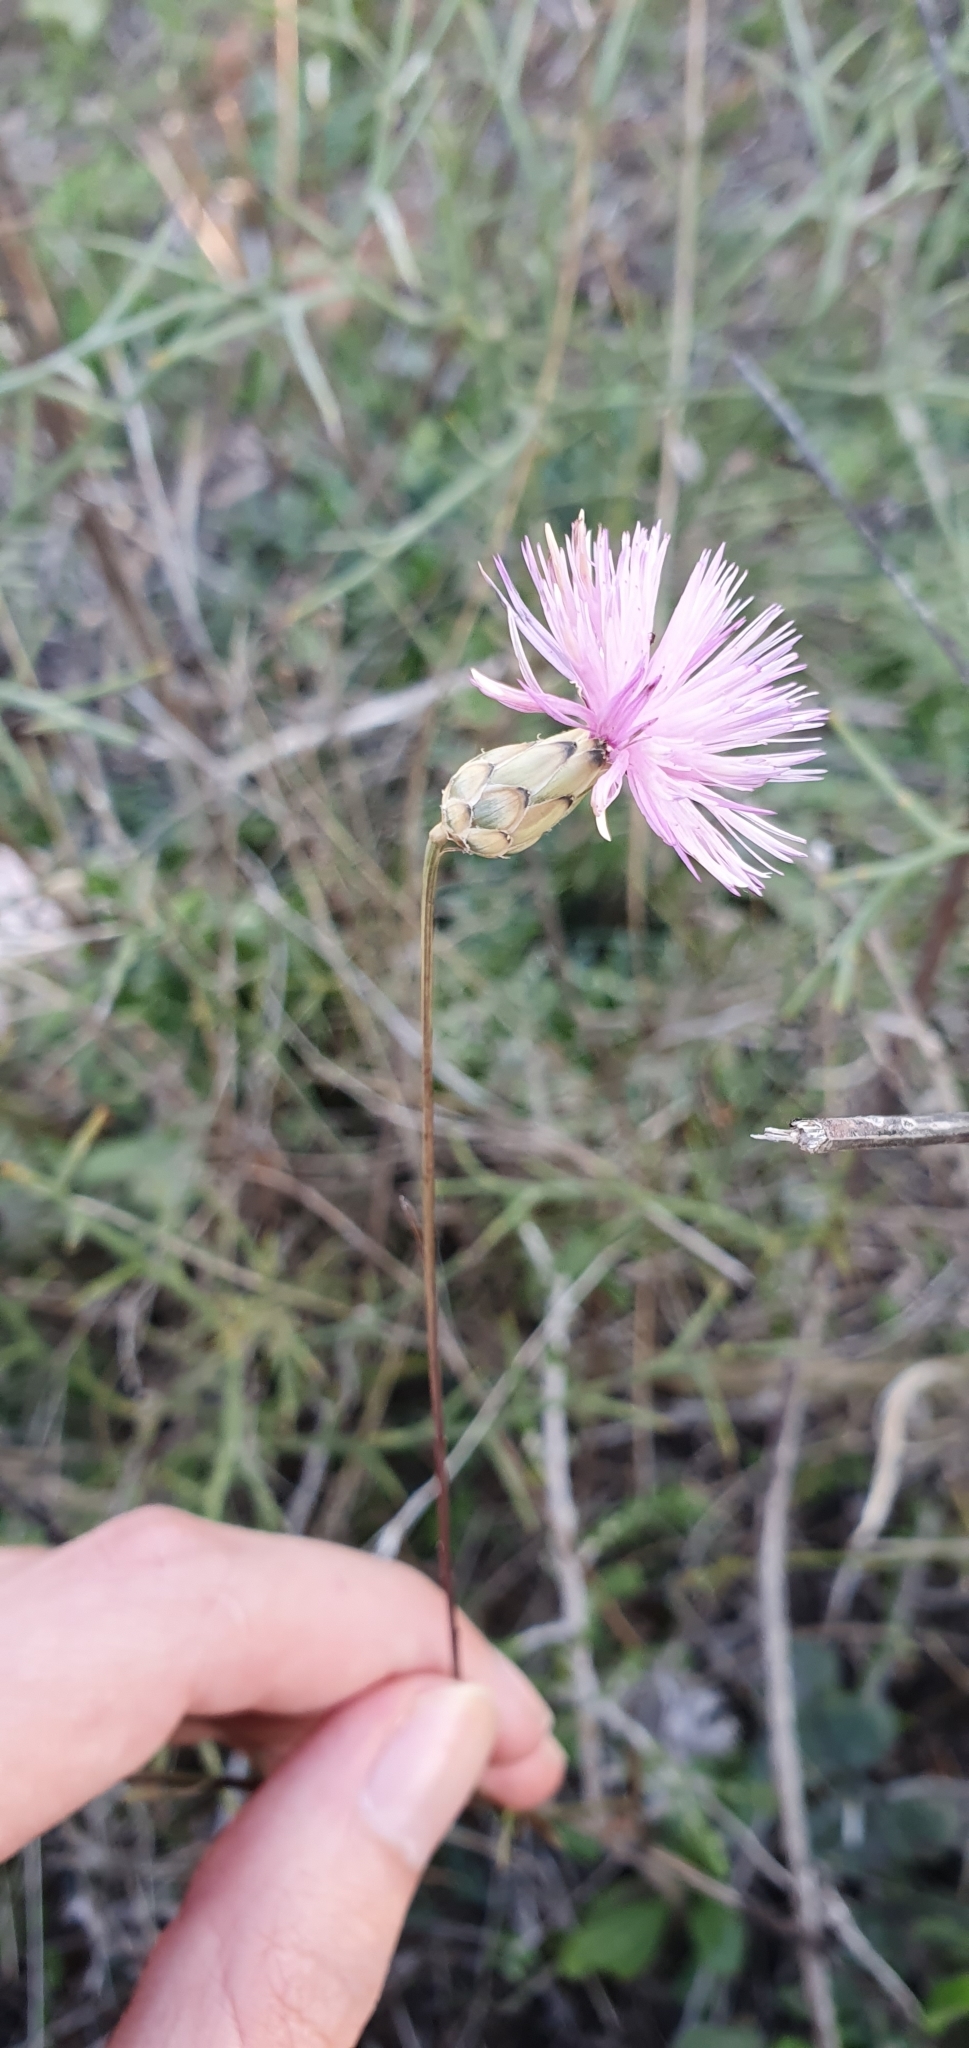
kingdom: Plantae
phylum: Tracheophyta
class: Magnoliopsida
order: Asterales
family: Asteraceae
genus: Mantisalca
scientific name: Mantisalca salmantica
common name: Dagger flower
